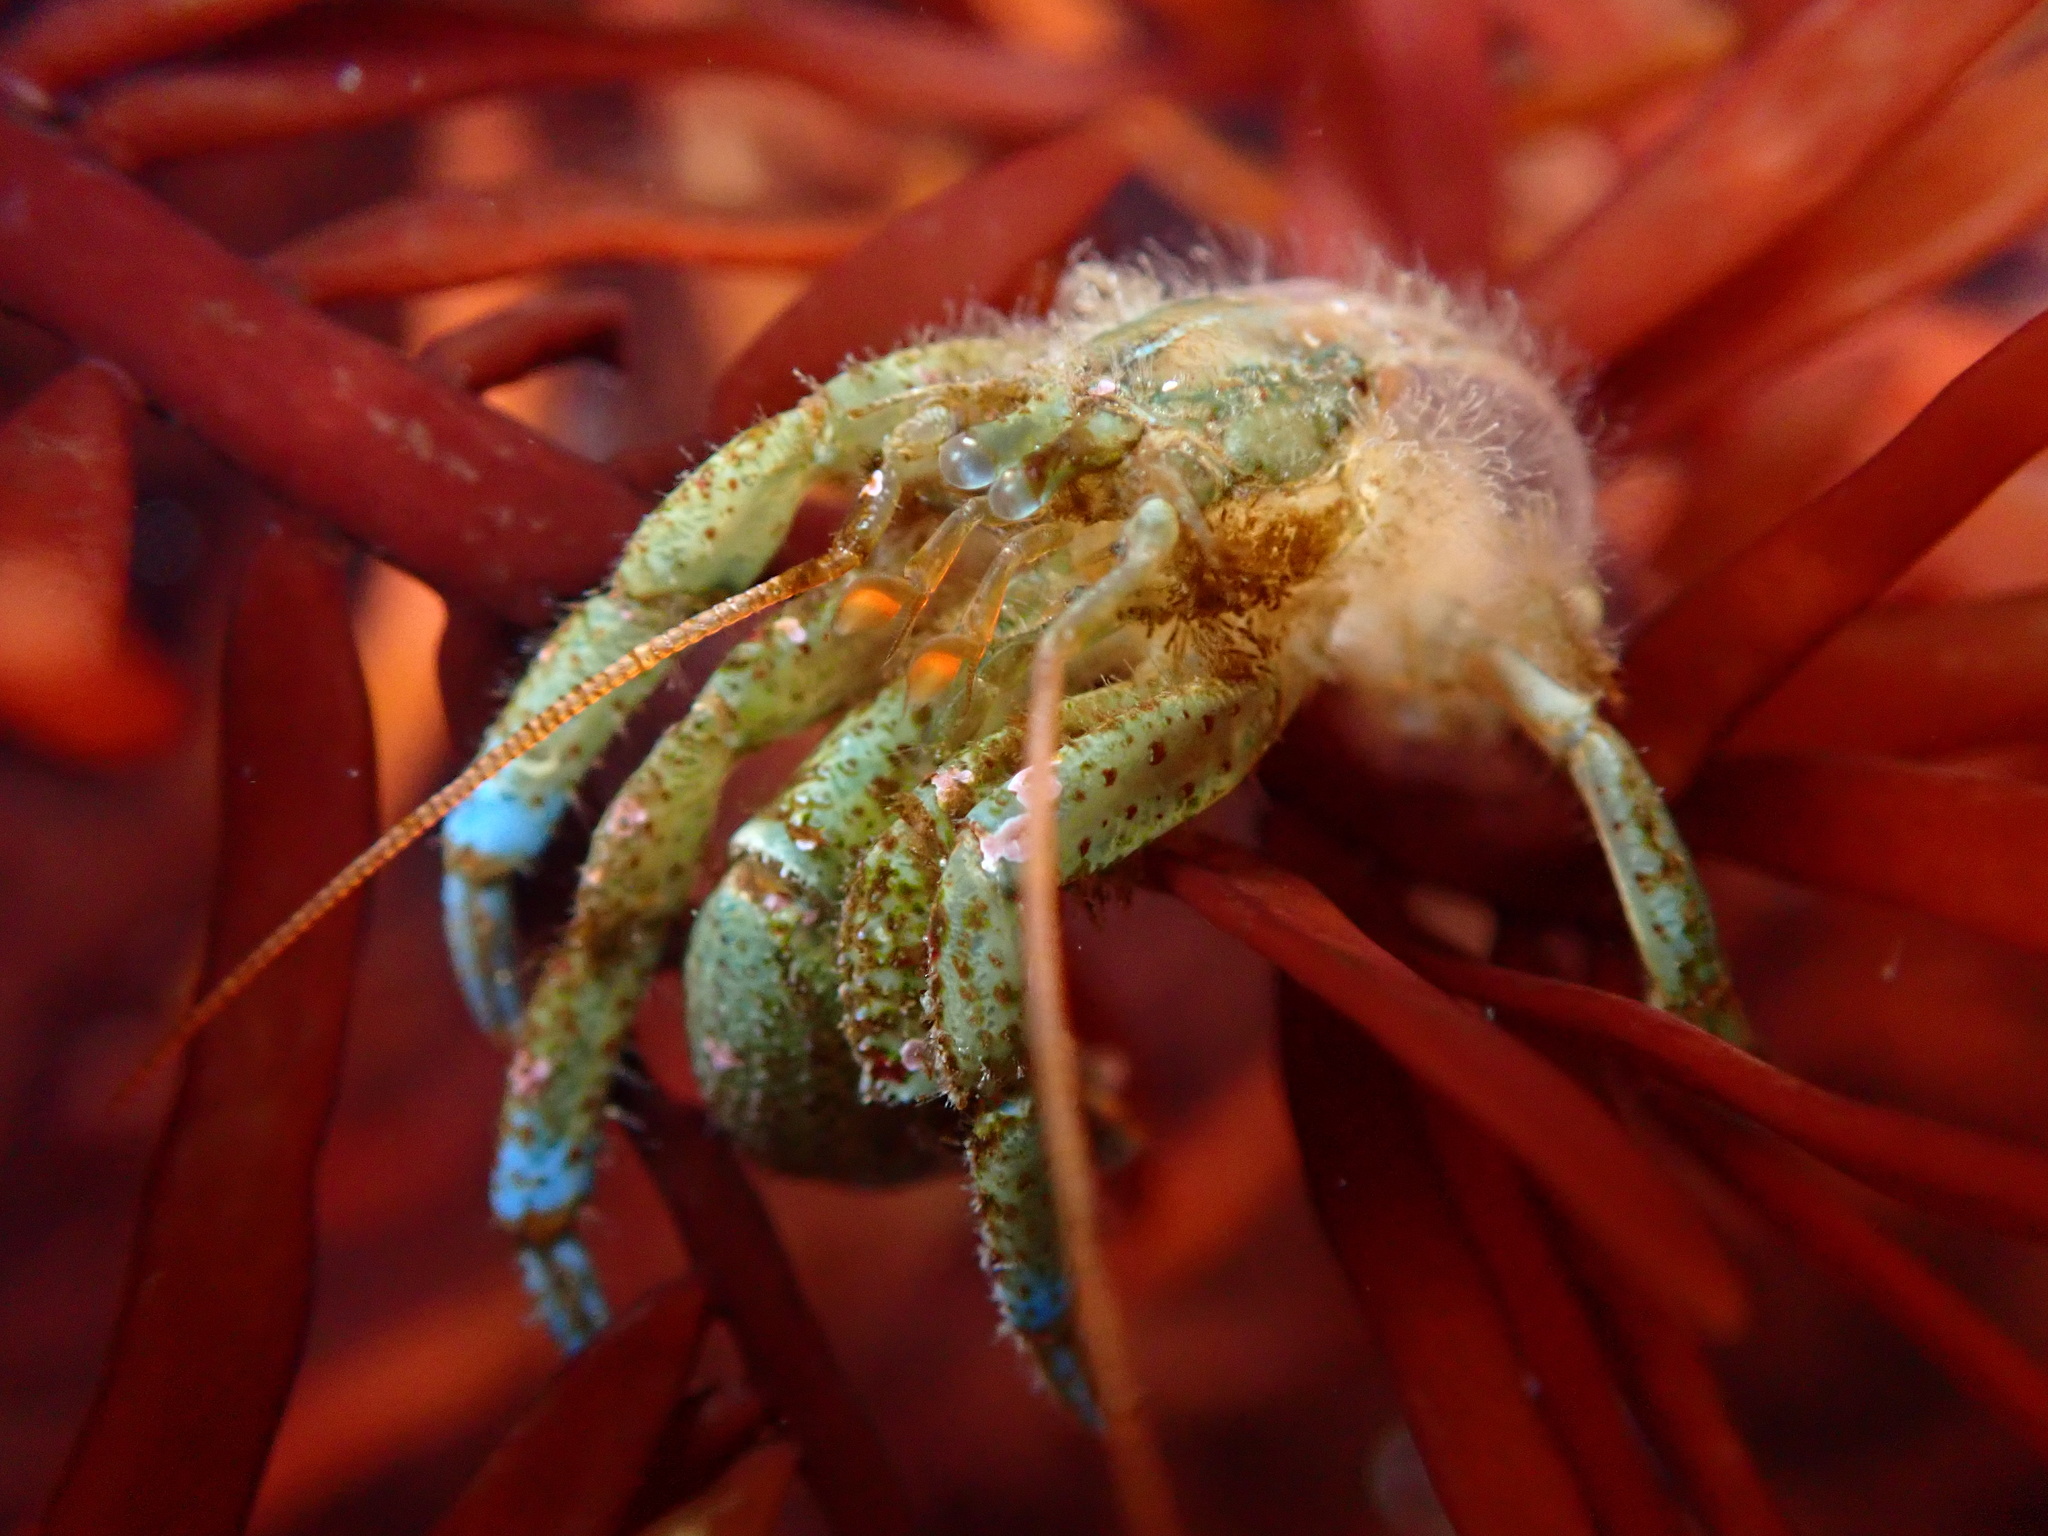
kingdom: Animalia
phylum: Arthropoda
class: Malacostraca
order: Decapoda
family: Paguridae
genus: Pagurus
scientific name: Pagurus samuelis
